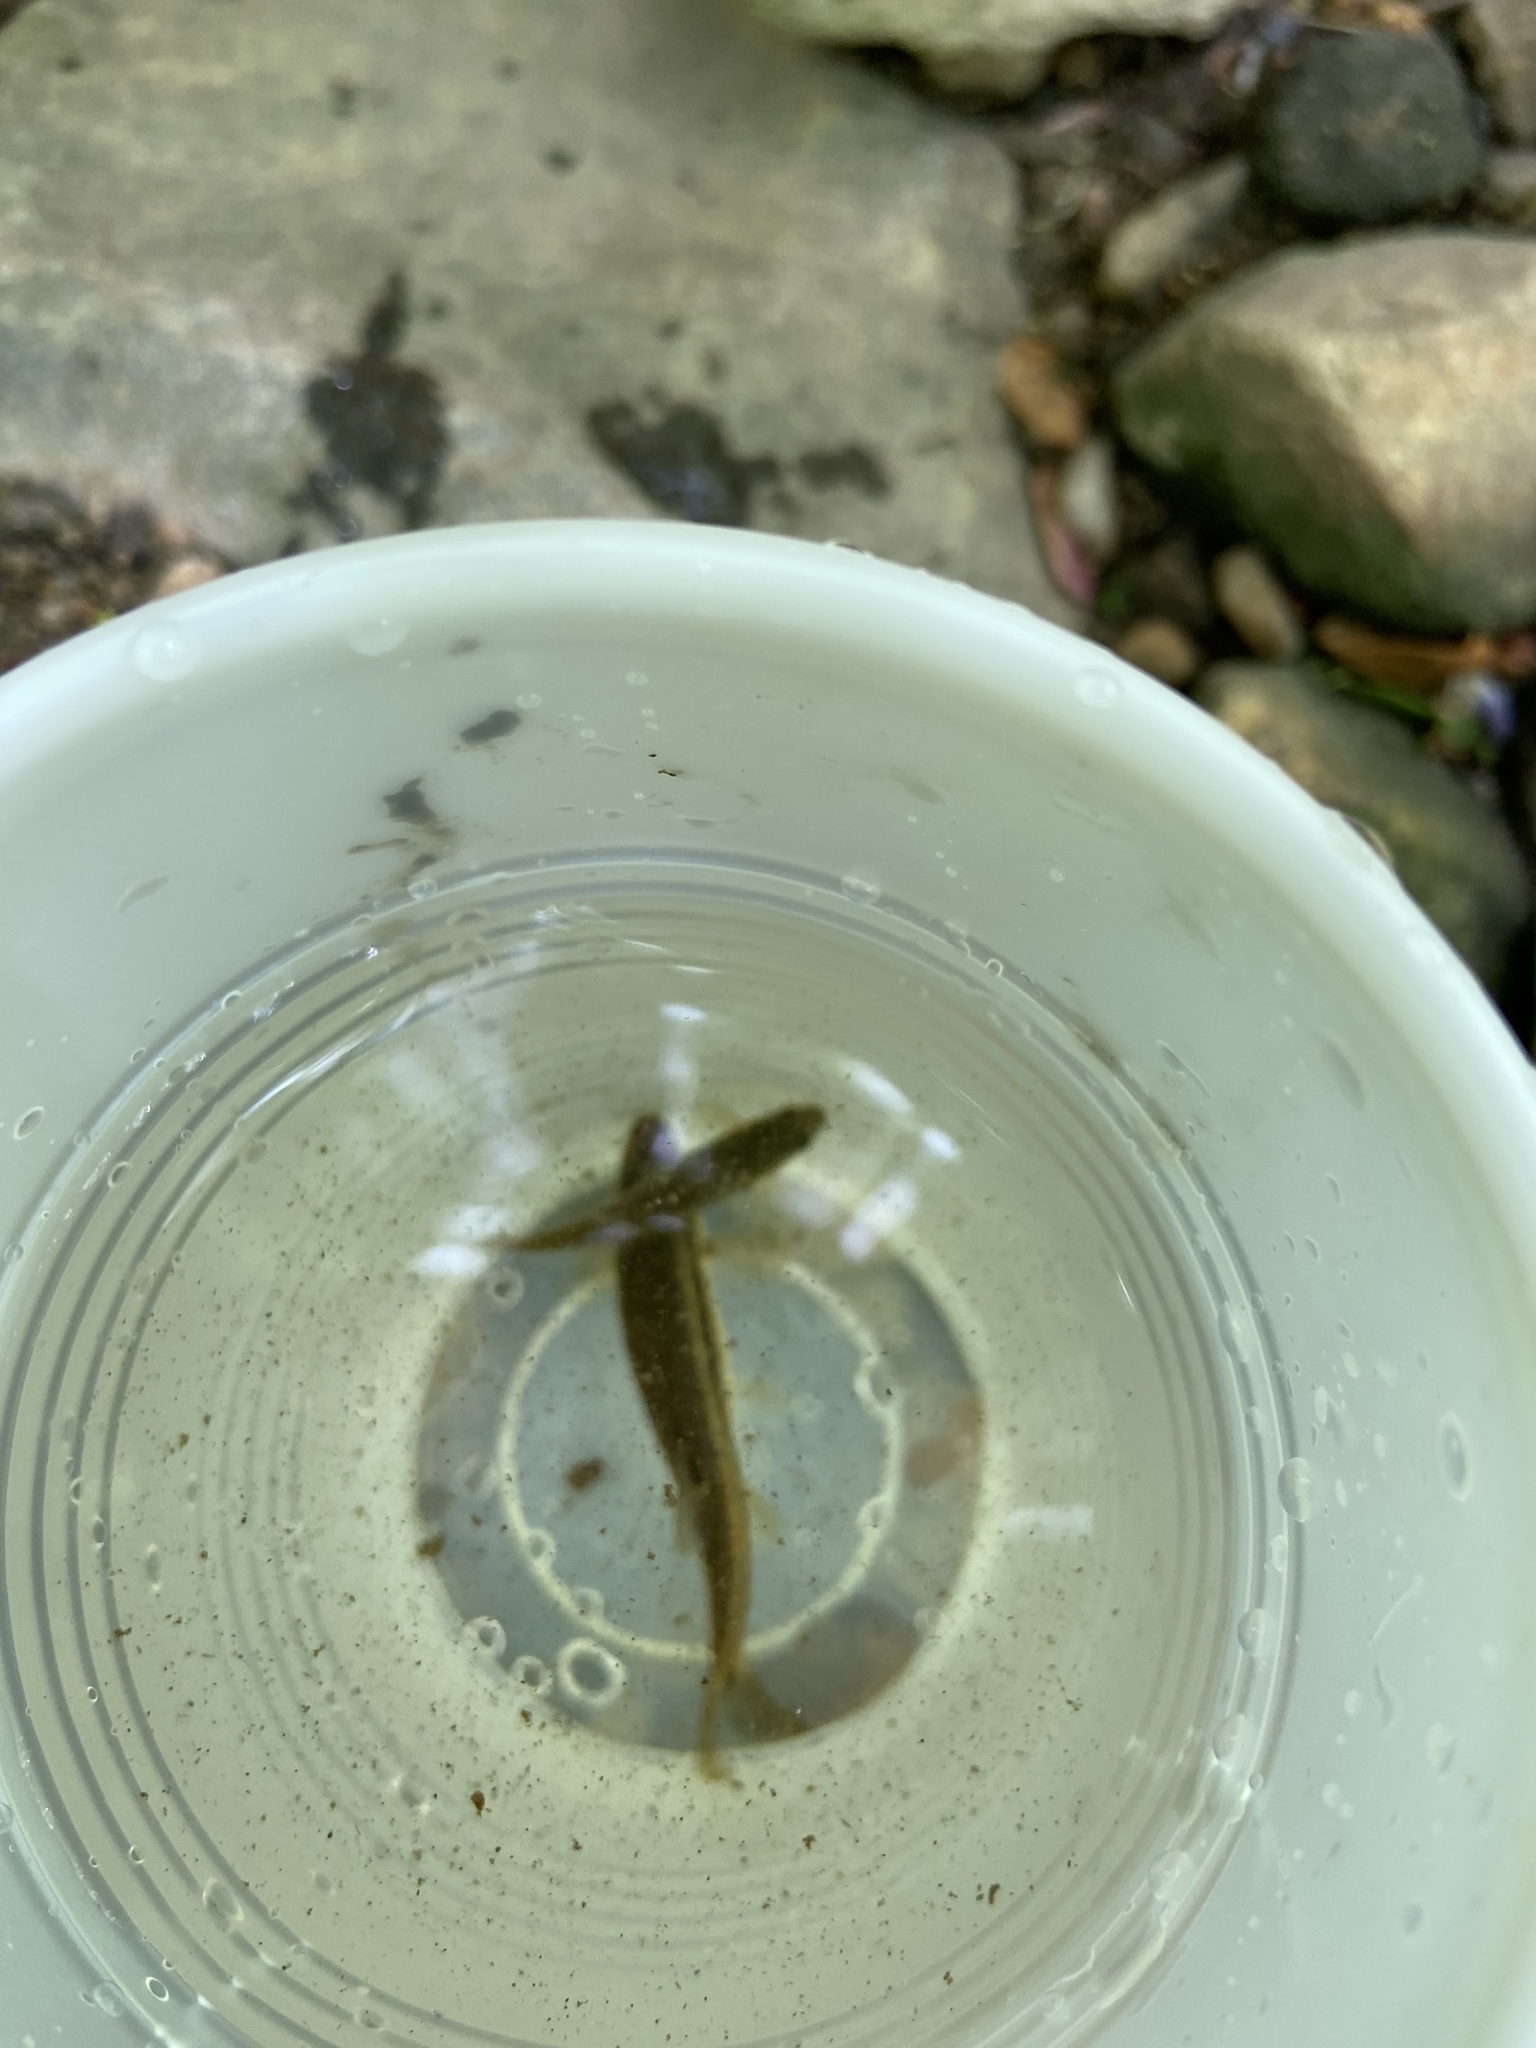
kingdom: Animalia
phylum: Chordata
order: Cypriniformes
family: Cyprinidae
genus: Rhinichthys
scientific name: Rhinichthys atratulus
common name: Eastern blacknose dace
